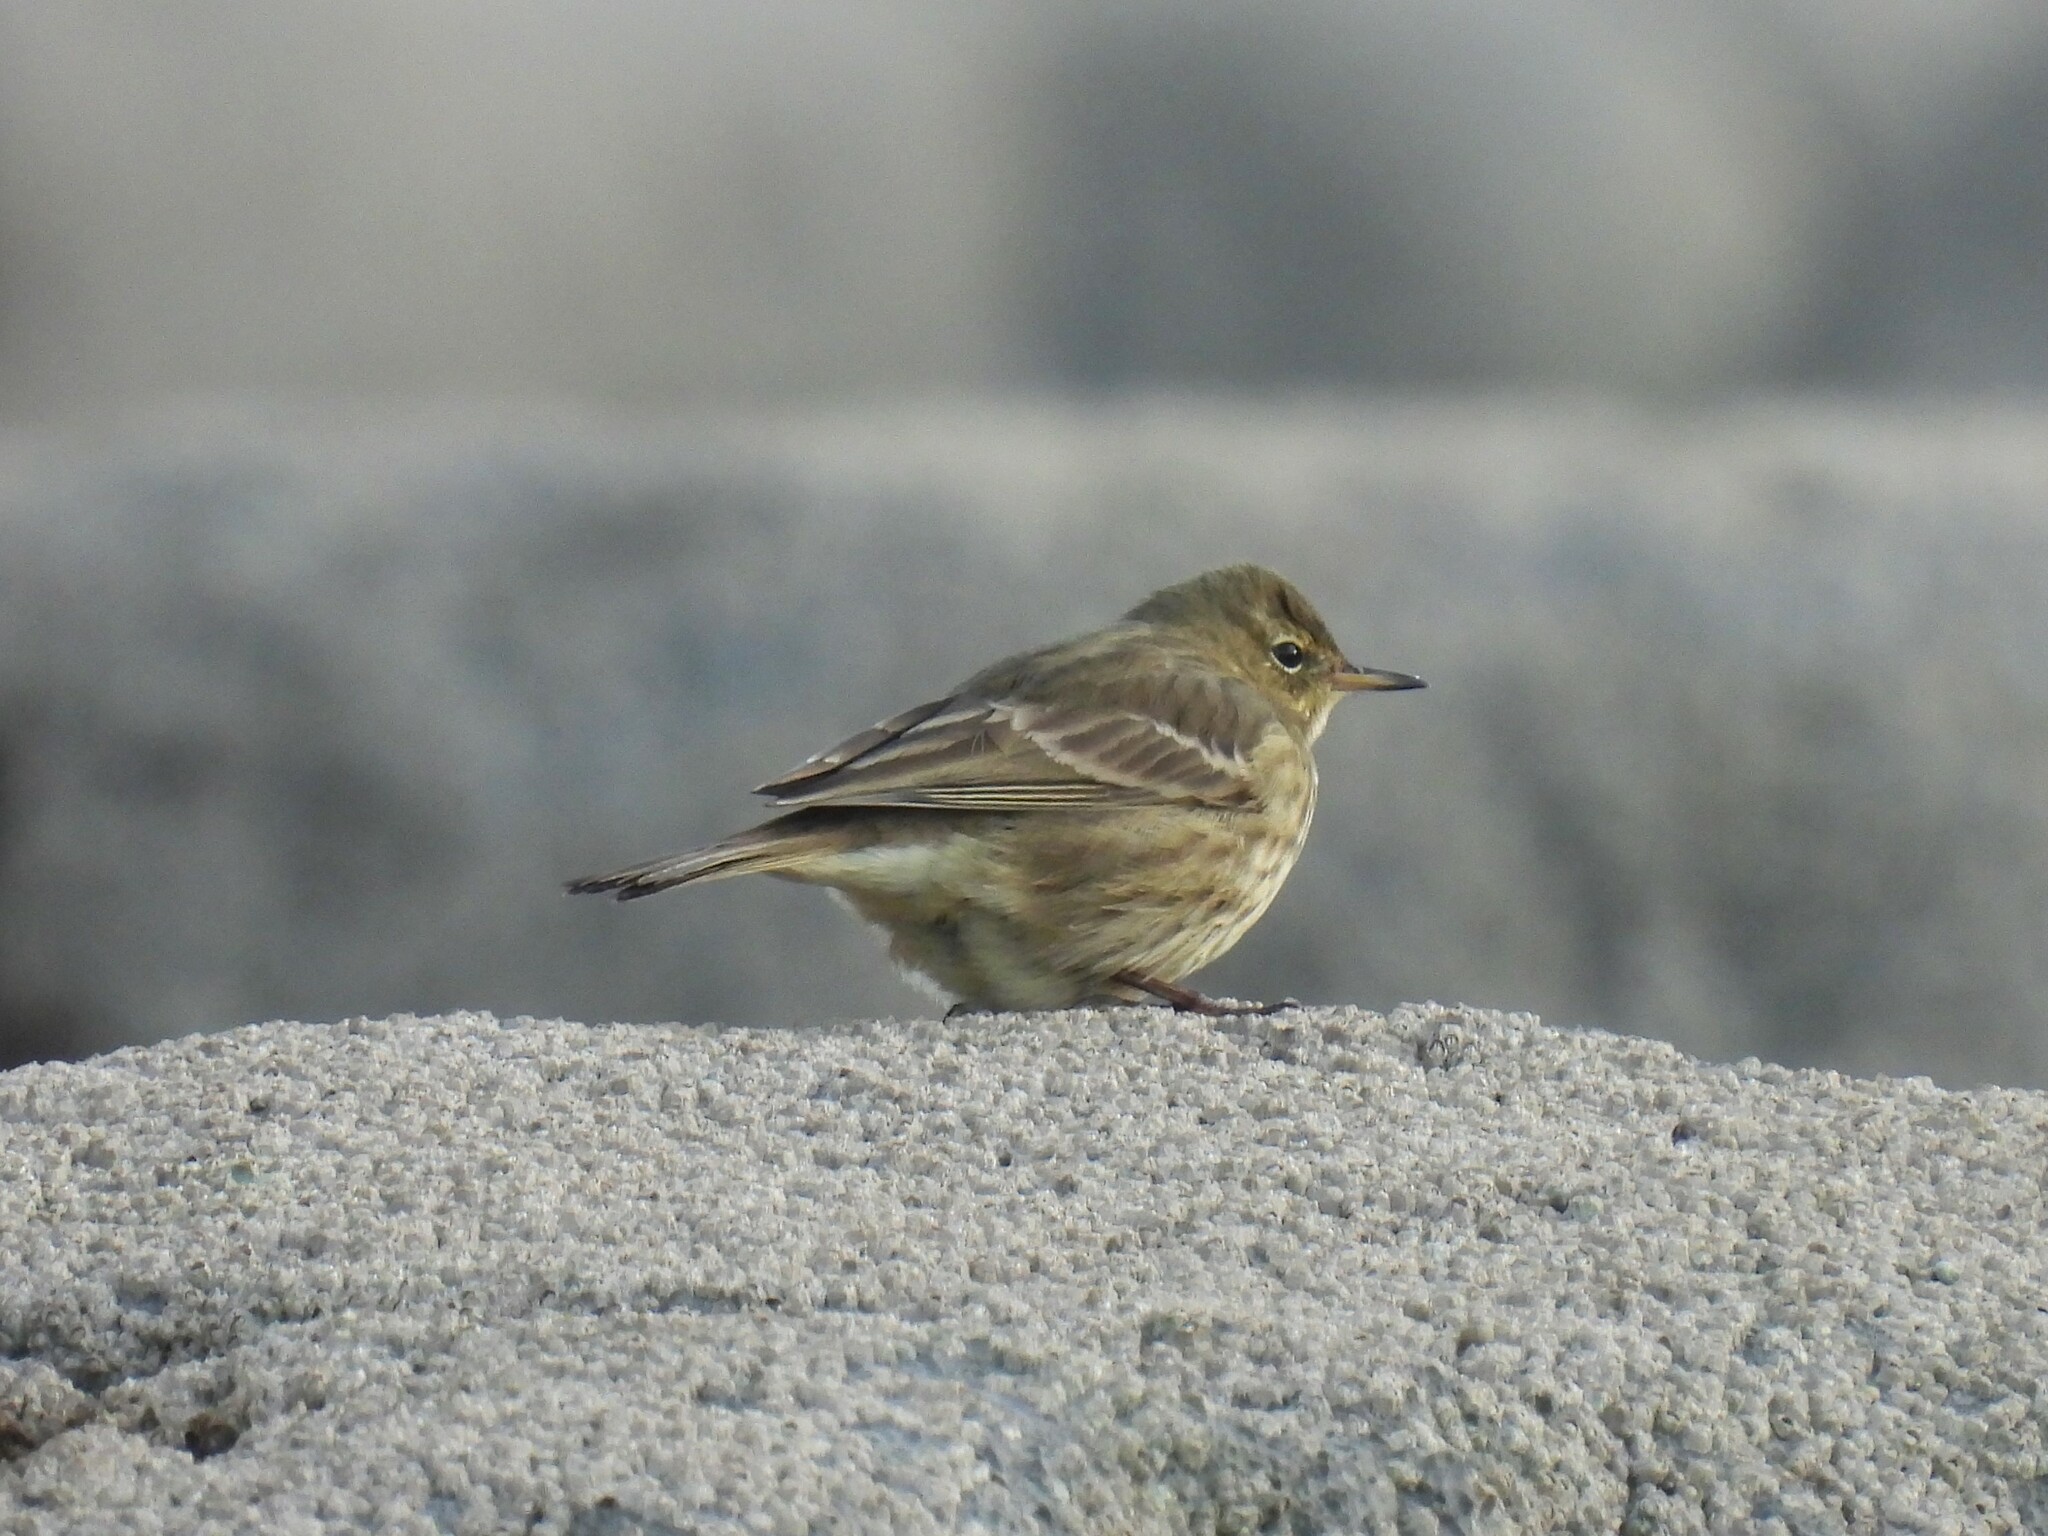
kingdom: Animalia
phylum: Chordata
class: Aves
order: Passeriformes
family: Motacillidae
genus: Anthus
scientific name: Anthus petrosus
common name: Eurasian rock pipit
